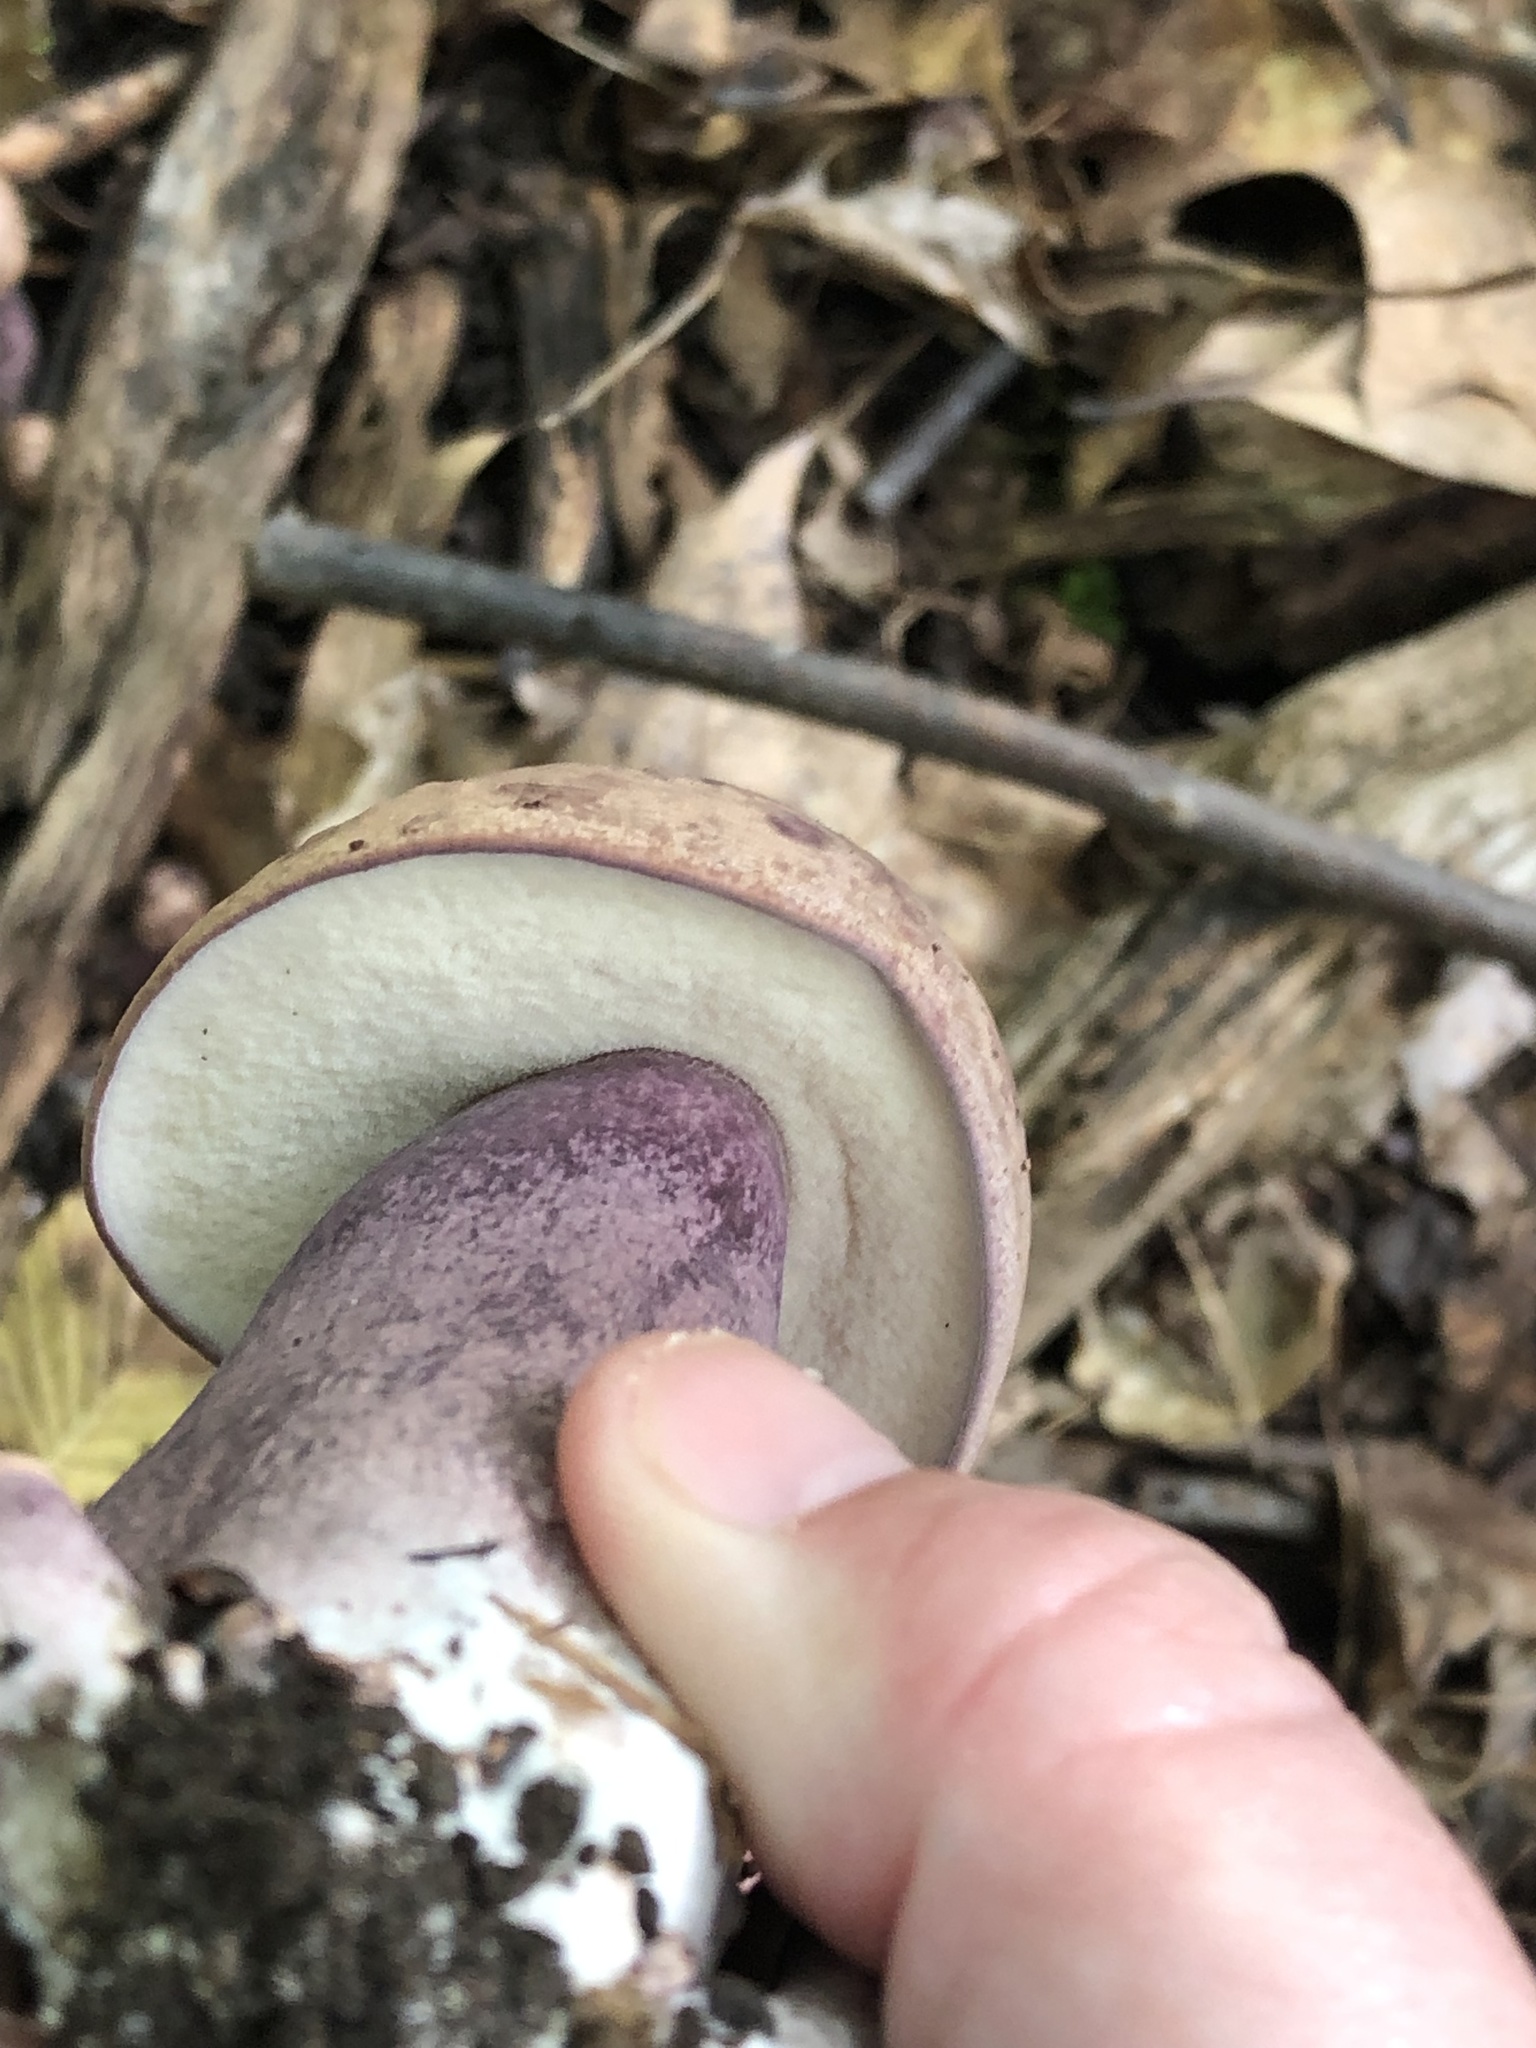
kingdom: Fungi
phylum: Basidiomycota
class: Agaricomycetes
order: Boletales
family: Boletaceae
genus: Tylopilus
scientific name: Tylopilus plumbeoviolaceus
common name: Violet gray bolete
